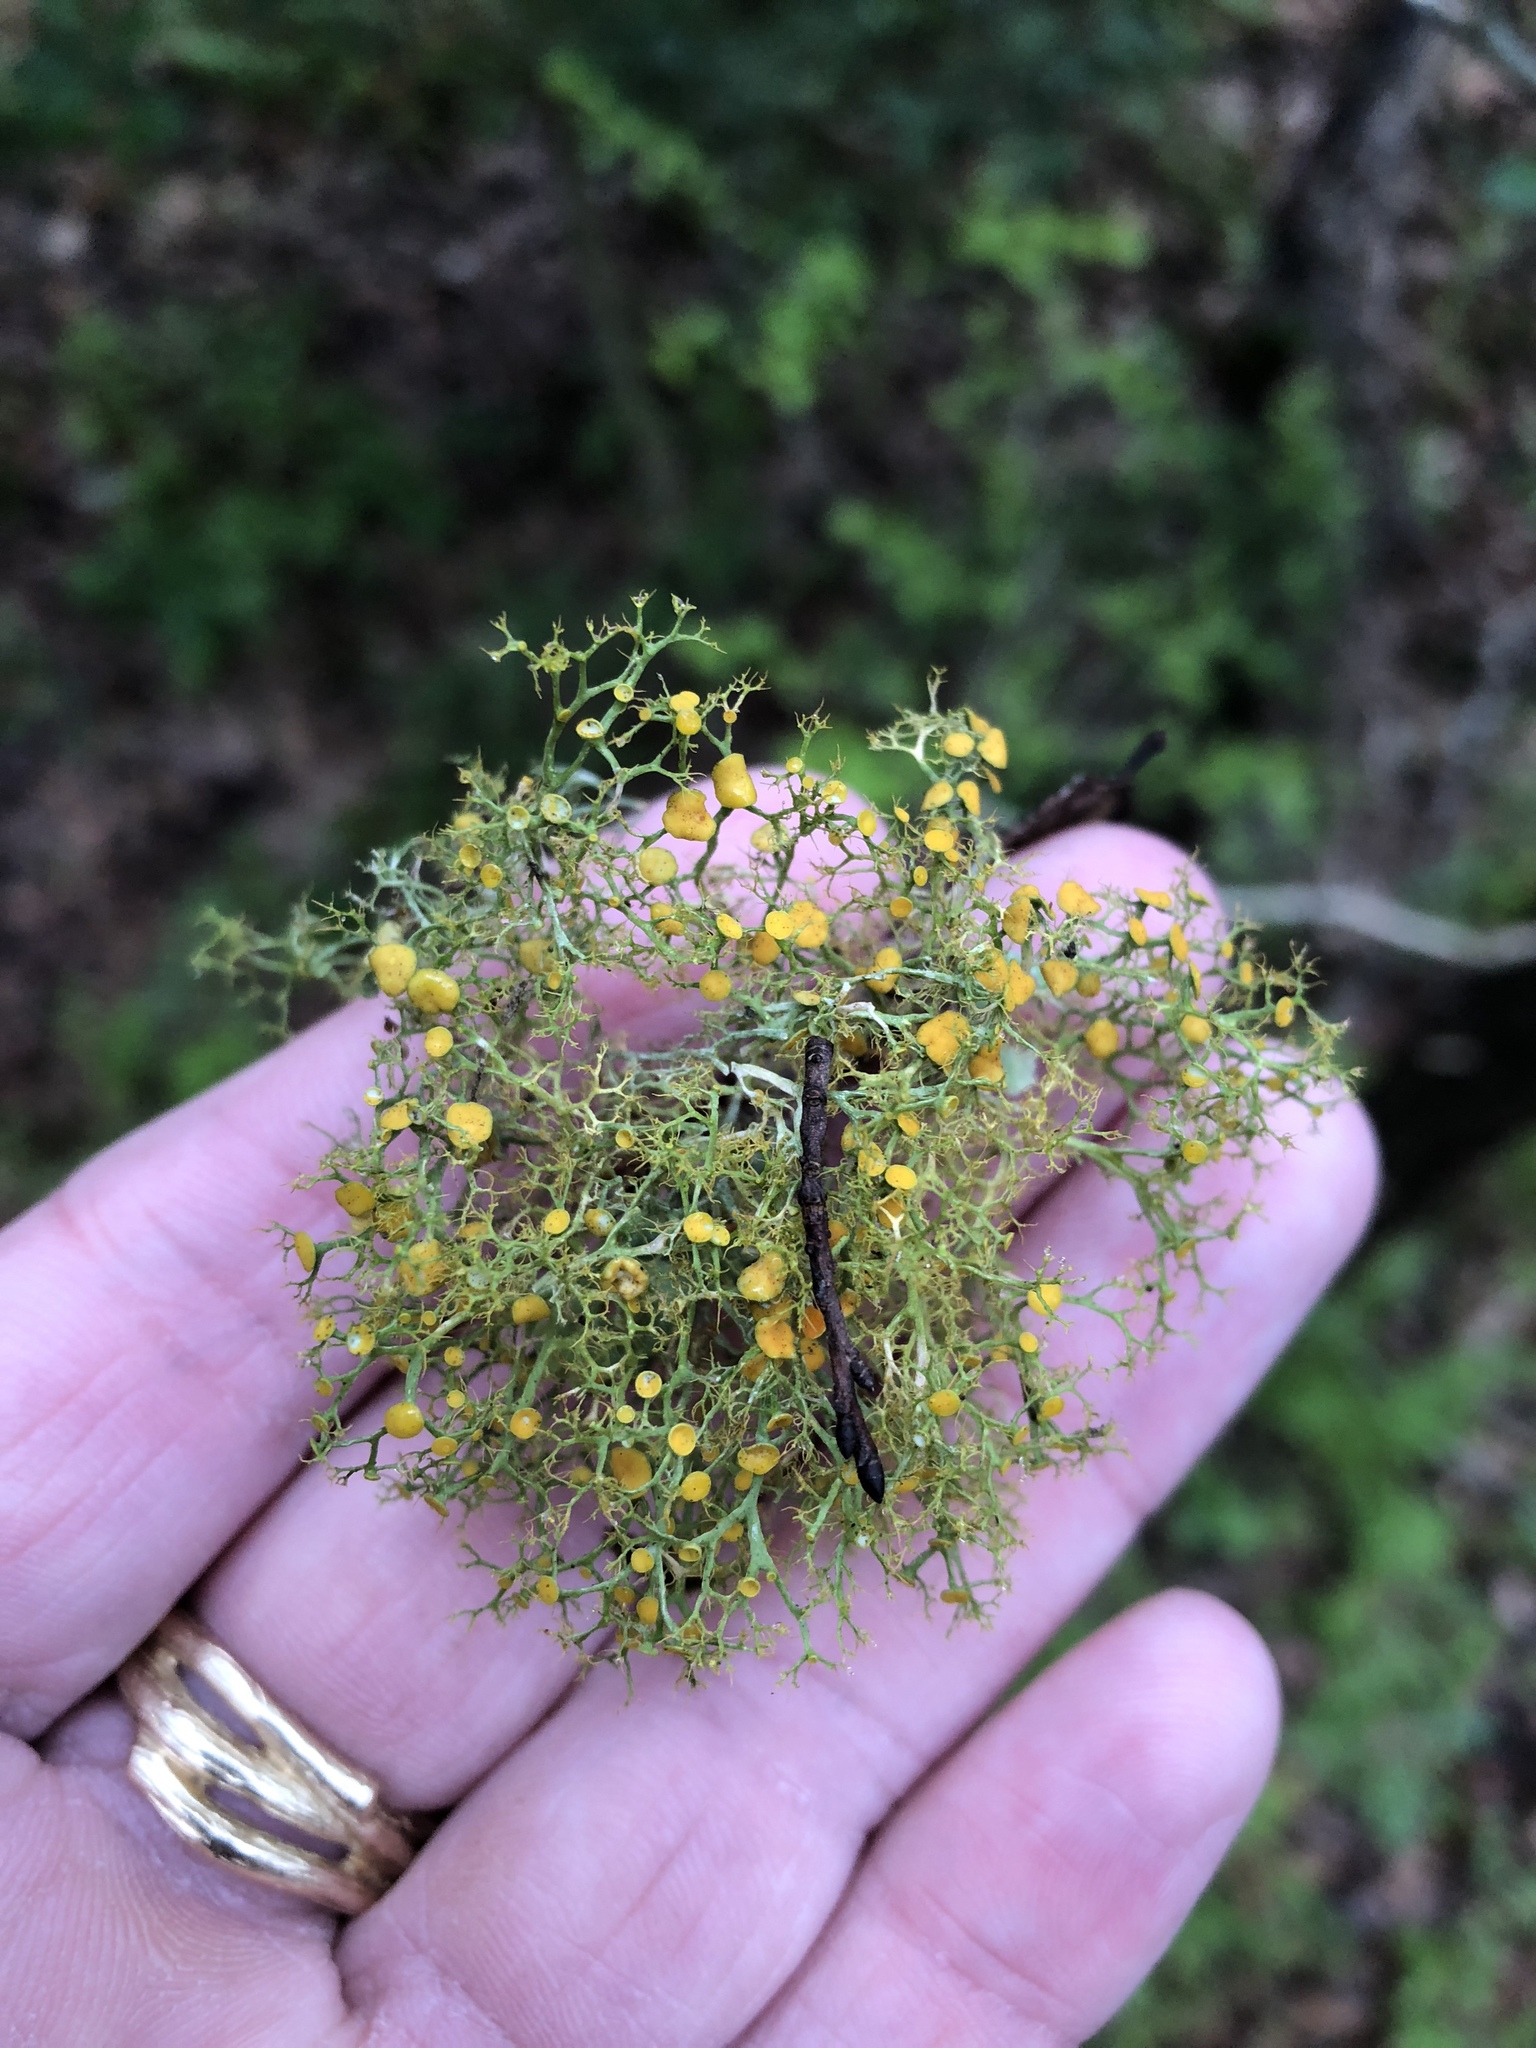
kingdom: Fungi
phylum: Ascomycota
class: Lecanoromycetes
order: Teloschistales
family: Teloschistaceae
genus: Teloschistes
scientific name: Teloschistes exilis
